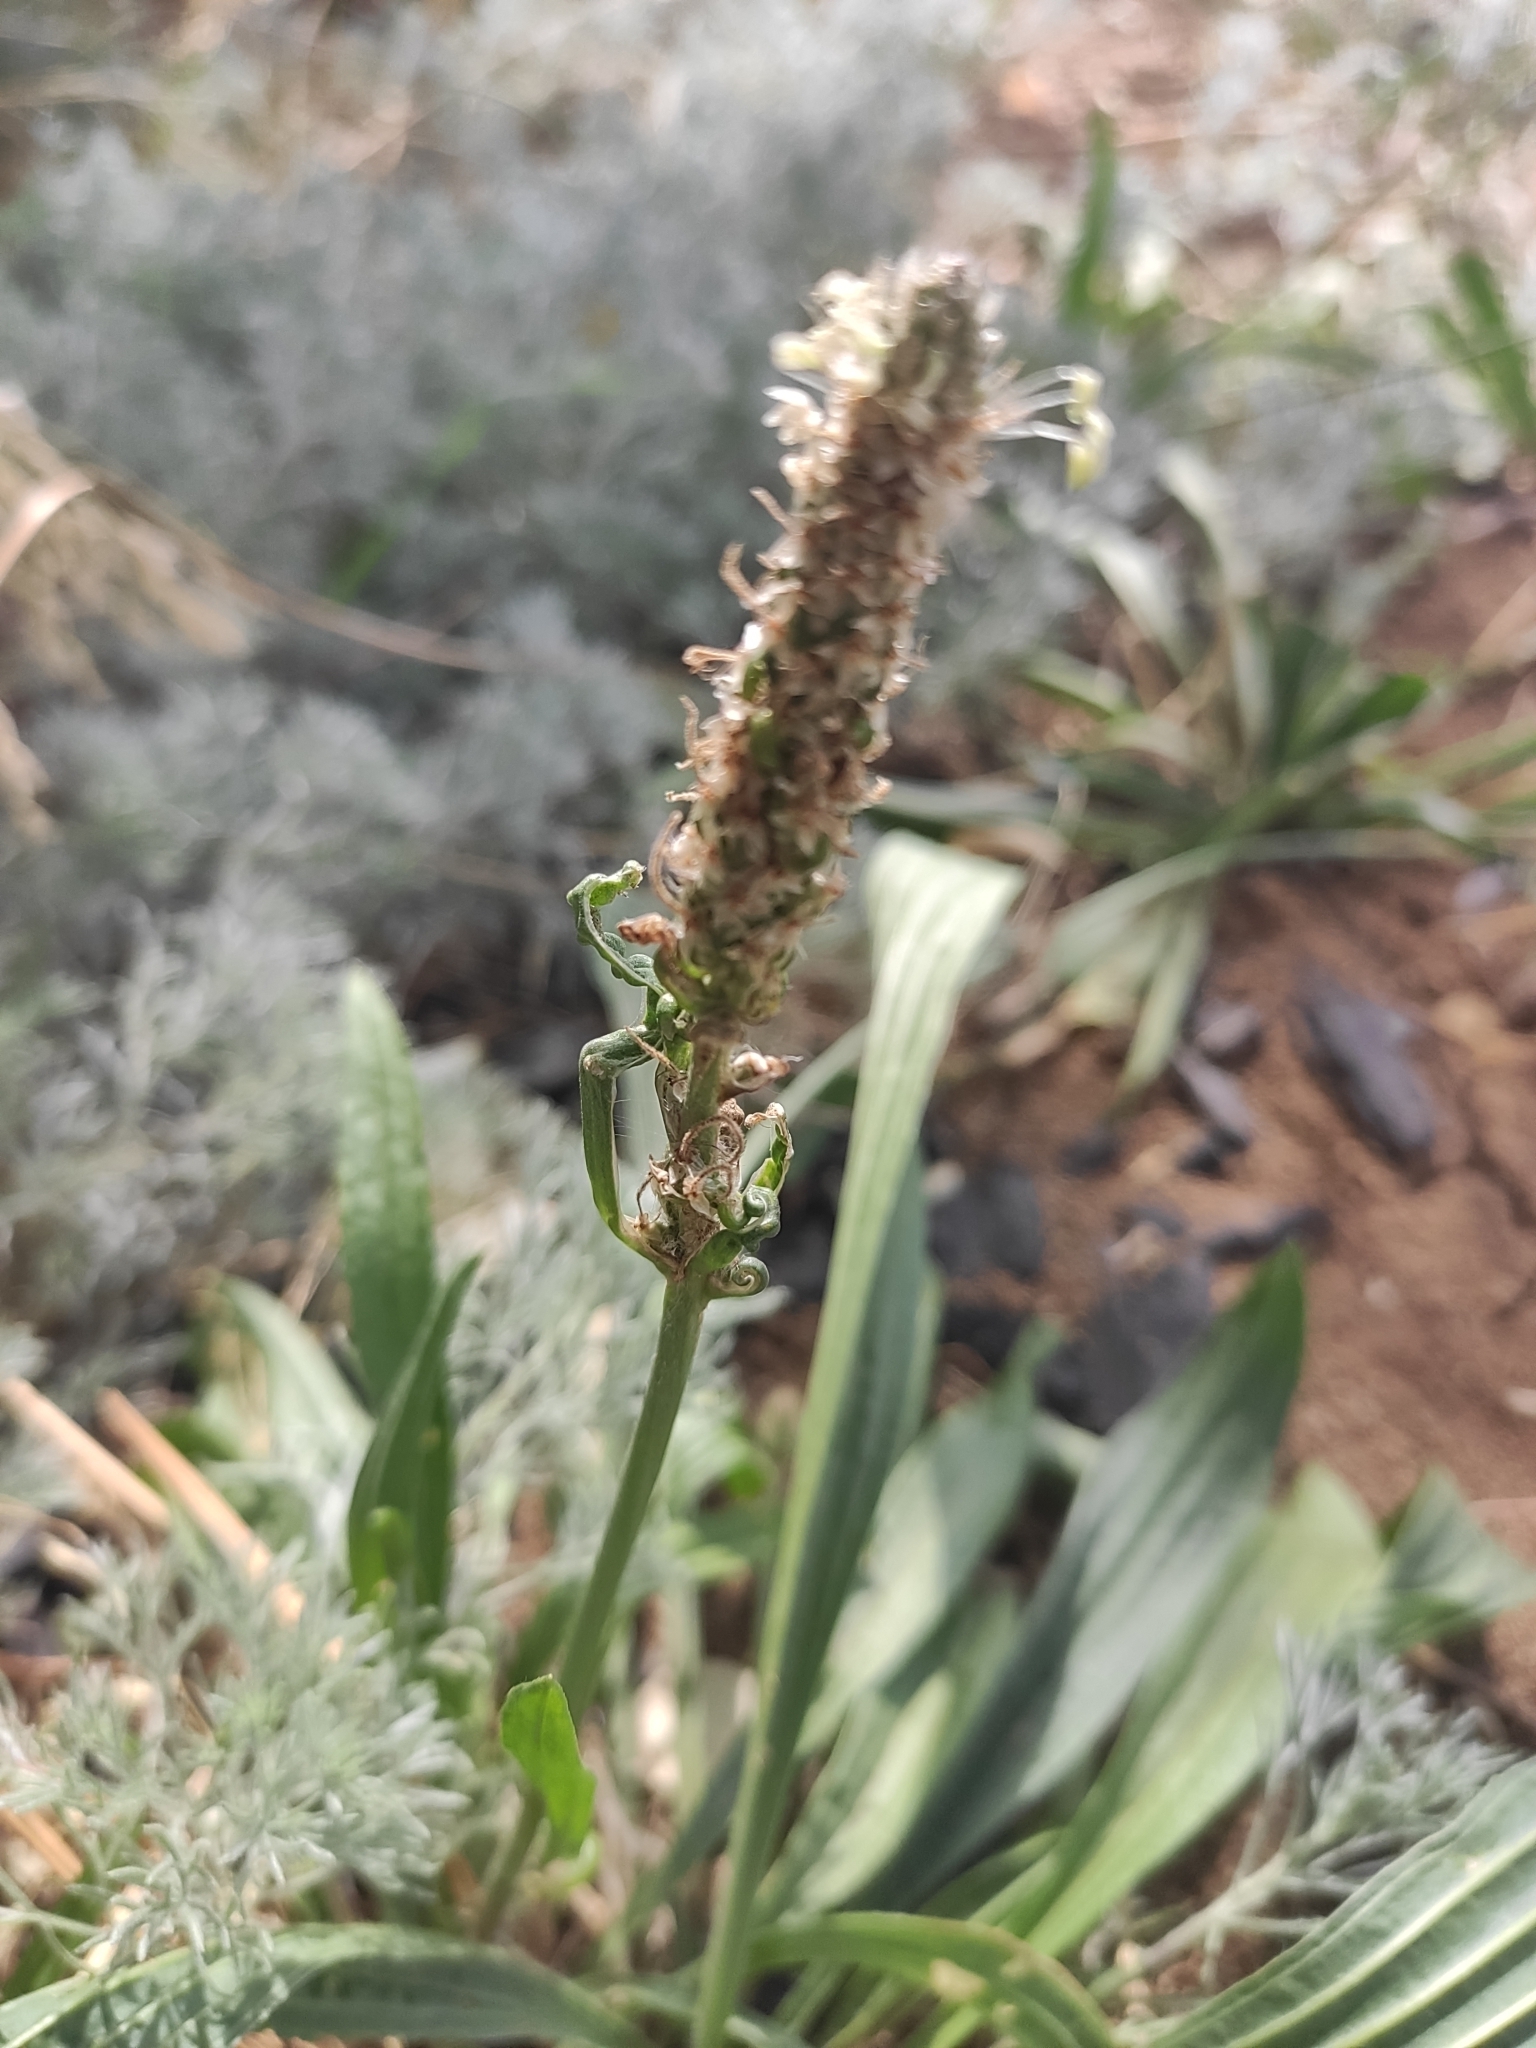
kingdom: Plantae
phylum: Tracheophyta
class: Magnoliopsida
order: Lamiales
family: Plantaginaceae
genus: Plantago
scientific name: Plantago lanceolata
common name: Ribwort plantain
